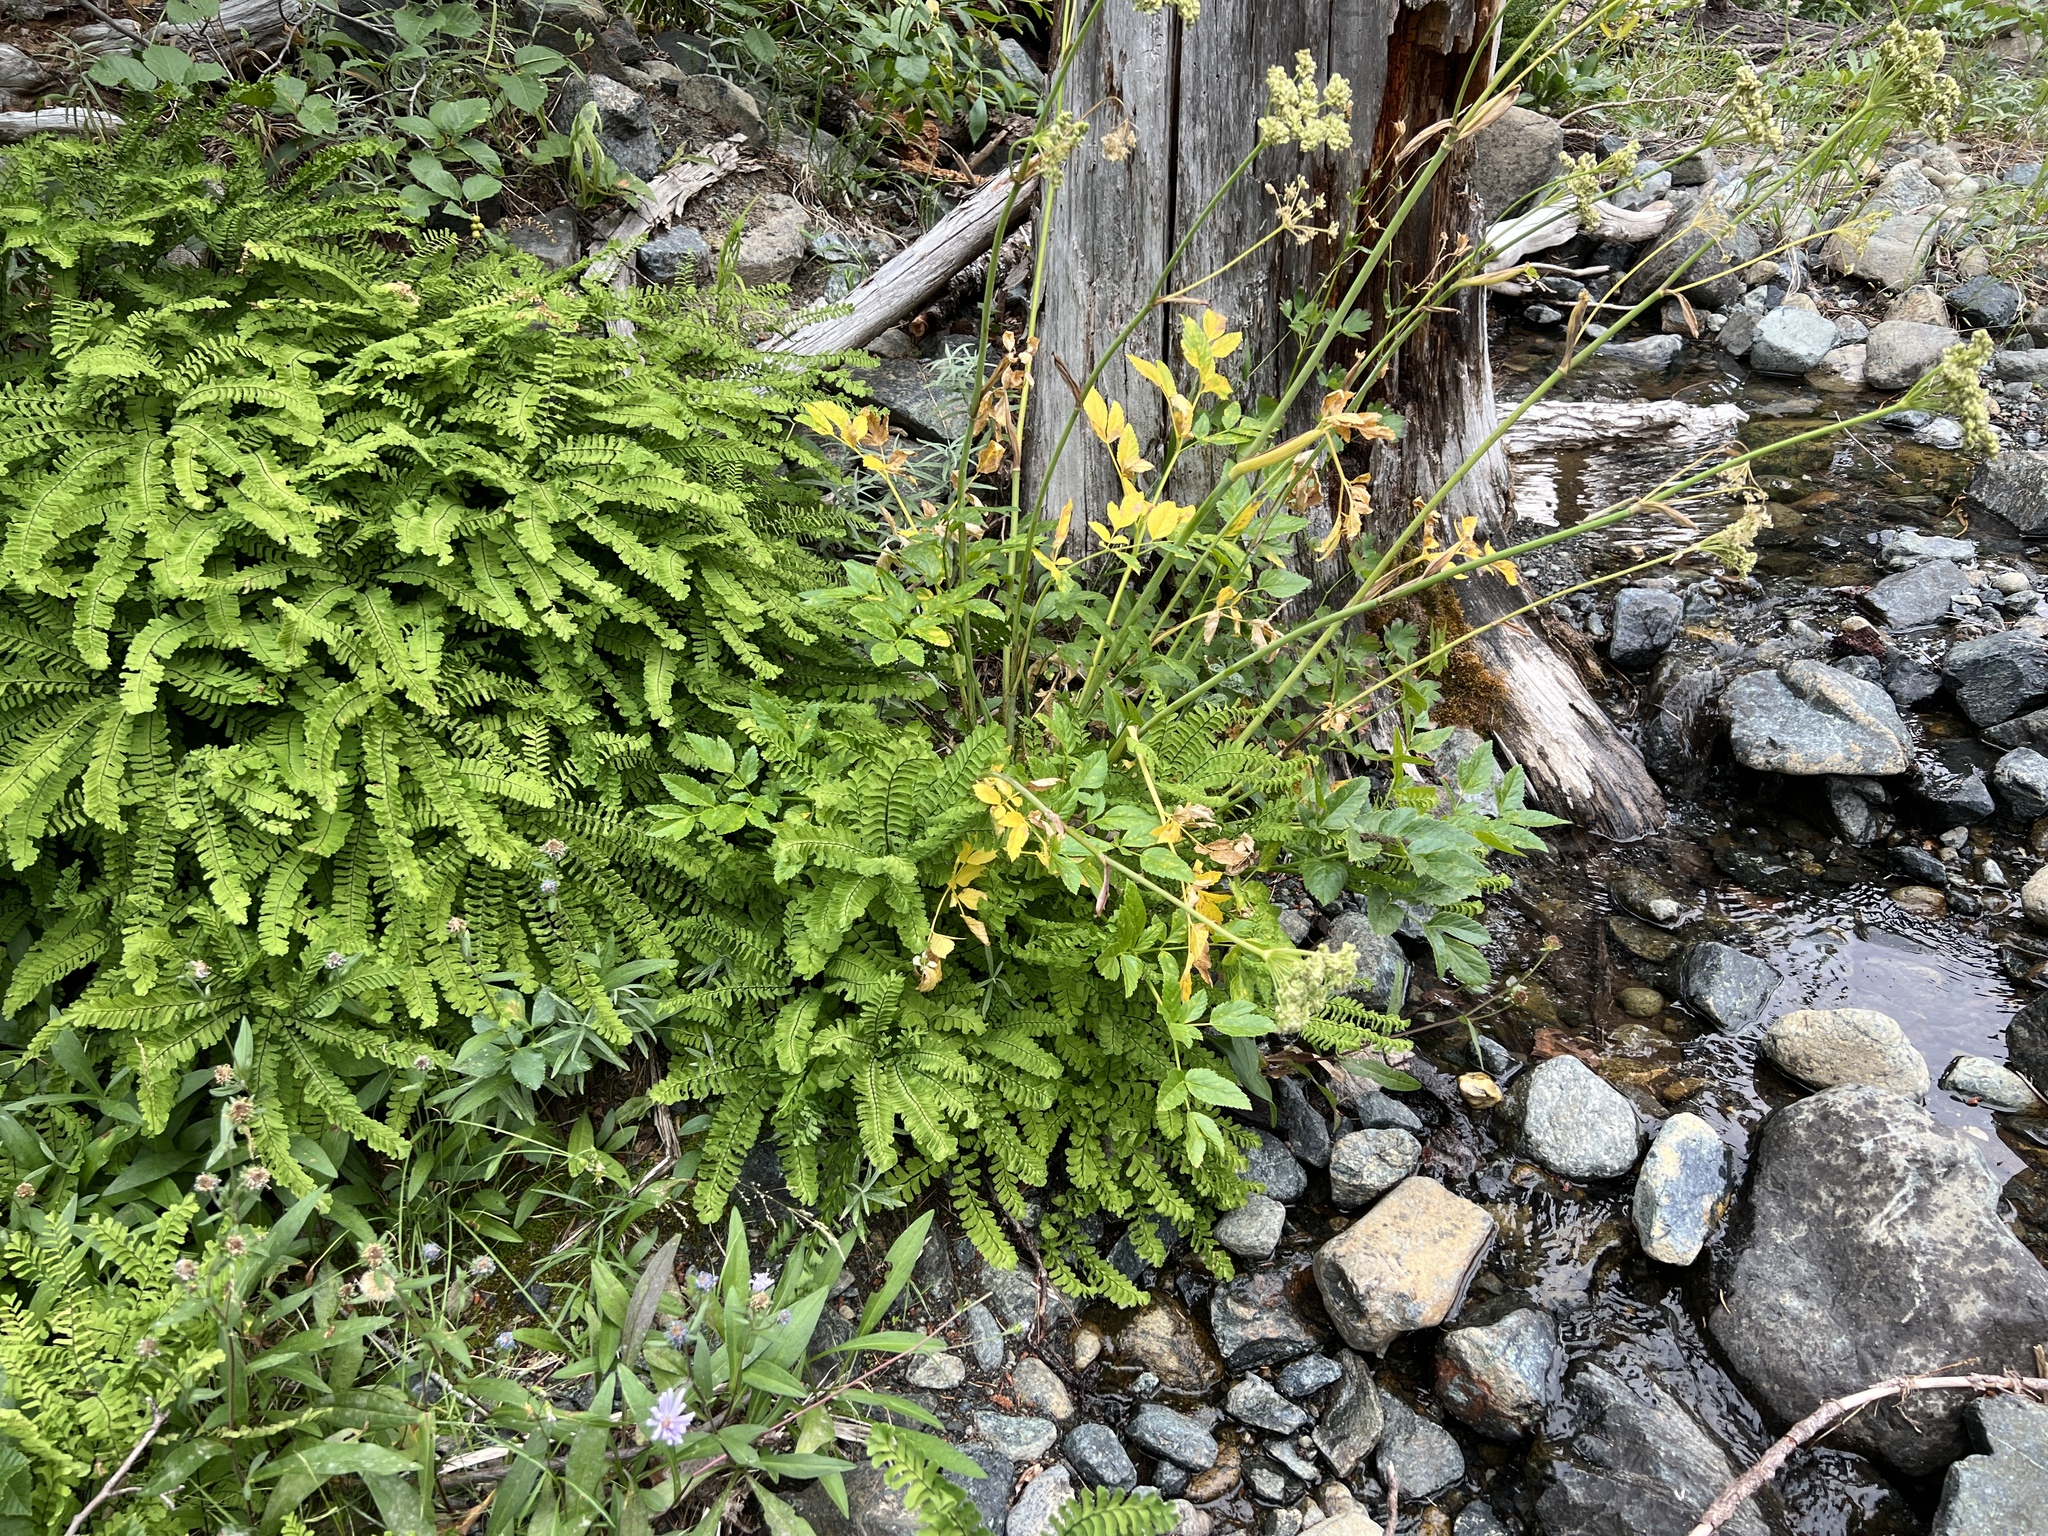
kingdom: Plantae
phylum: Tracheophyta
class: Polypodiopsida
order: Polypodiales
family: Pteridaceae
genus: Adiantum
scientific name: Adiantum aleuticum
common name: Aleutian maidenhair fern
